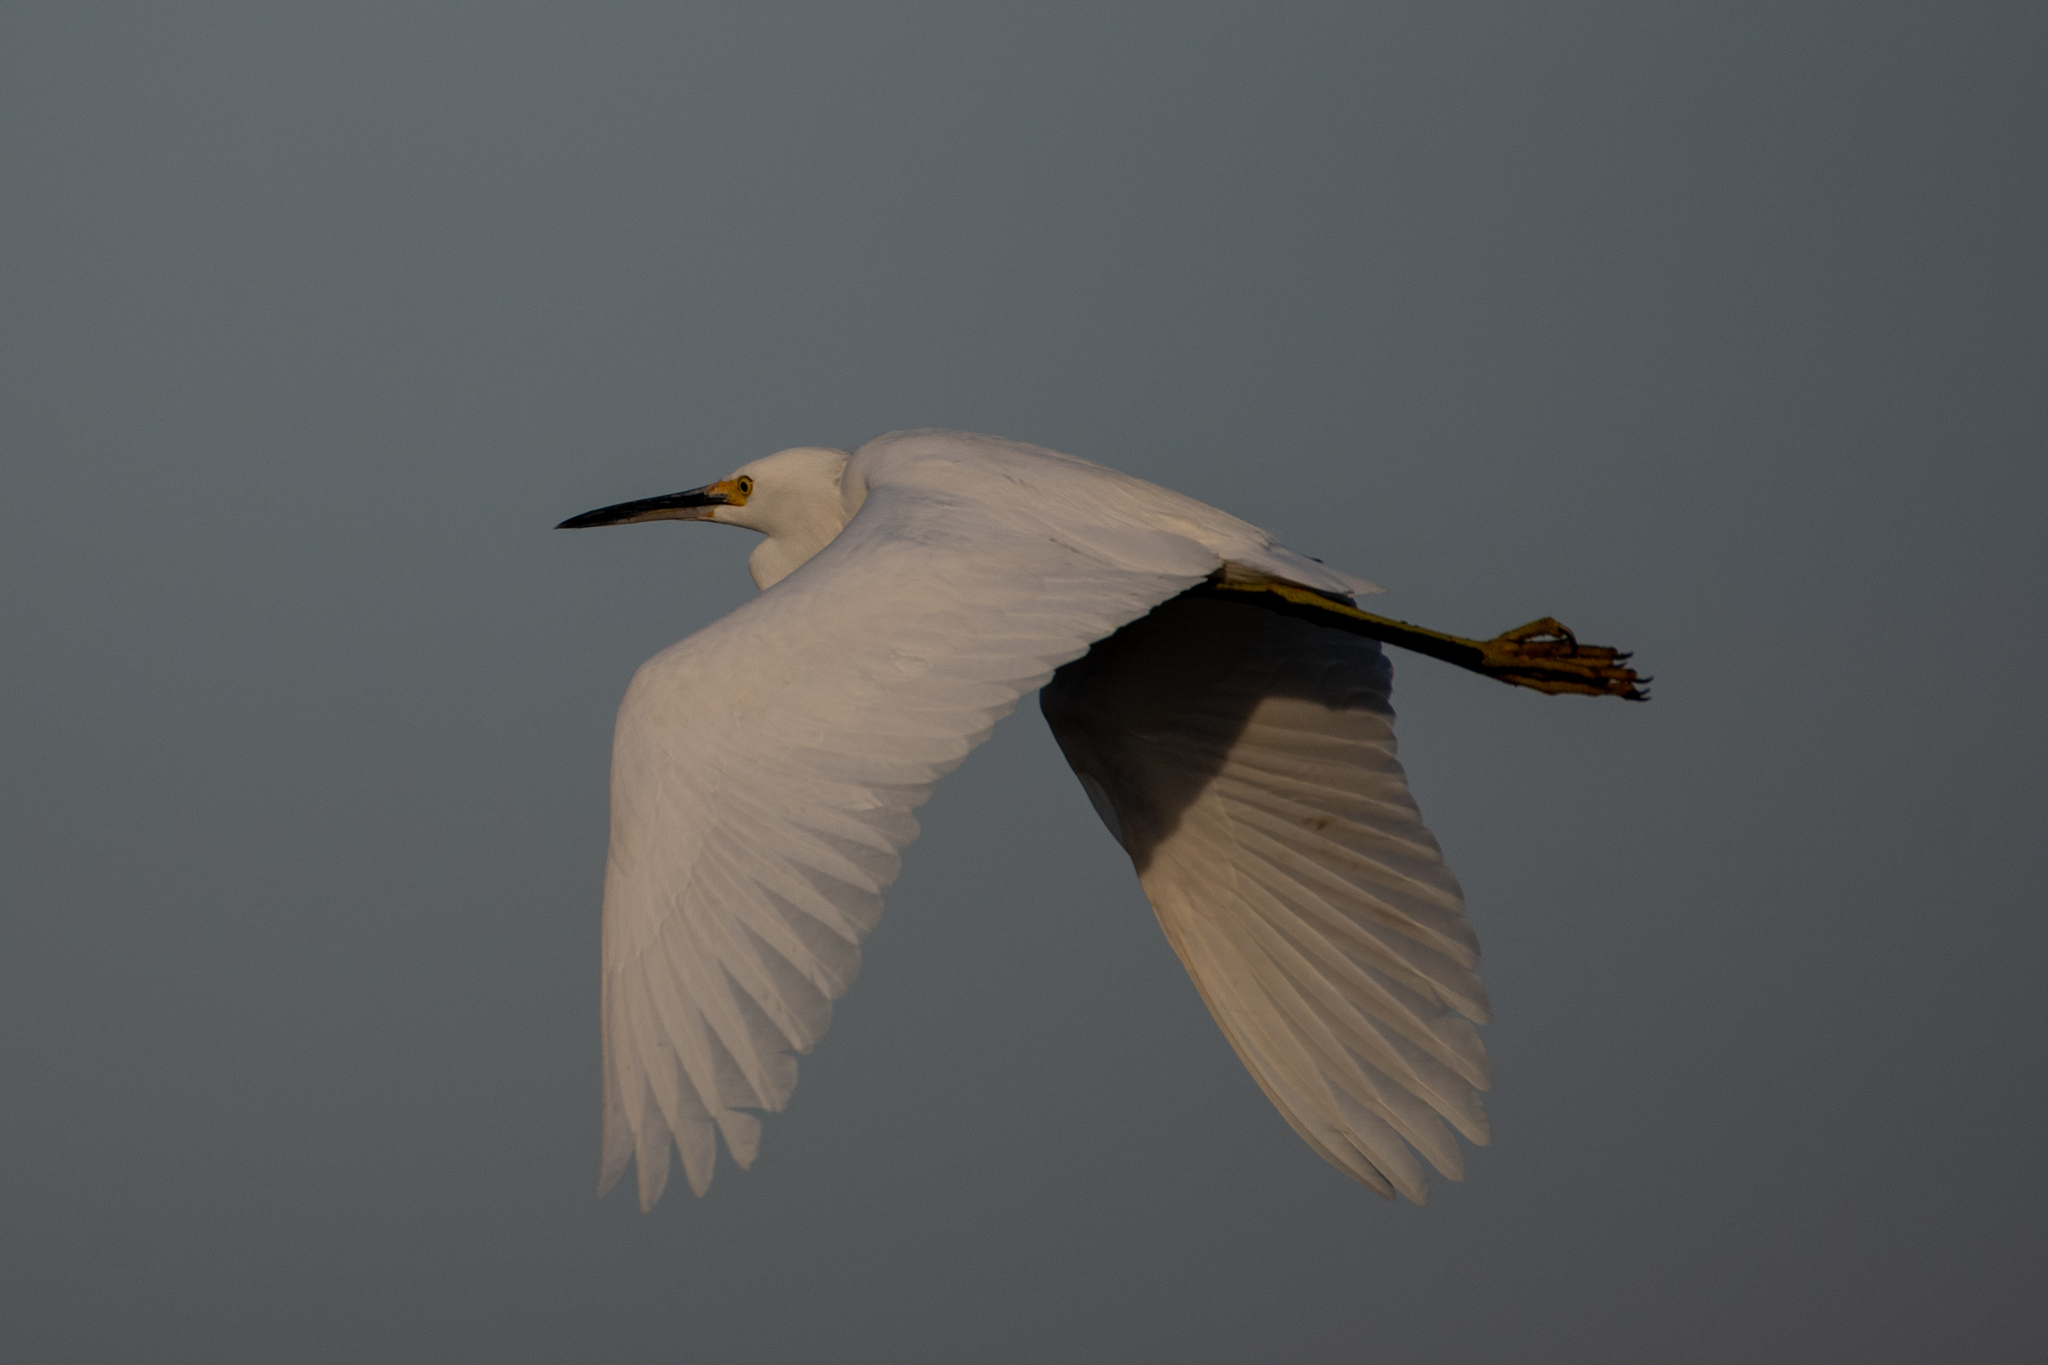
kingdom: Animalia
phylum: Chordata
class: Aves
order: Pelecaniformes
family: Ardeidae
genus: Egretta
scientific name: Egretta thula
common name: Snowy egret
